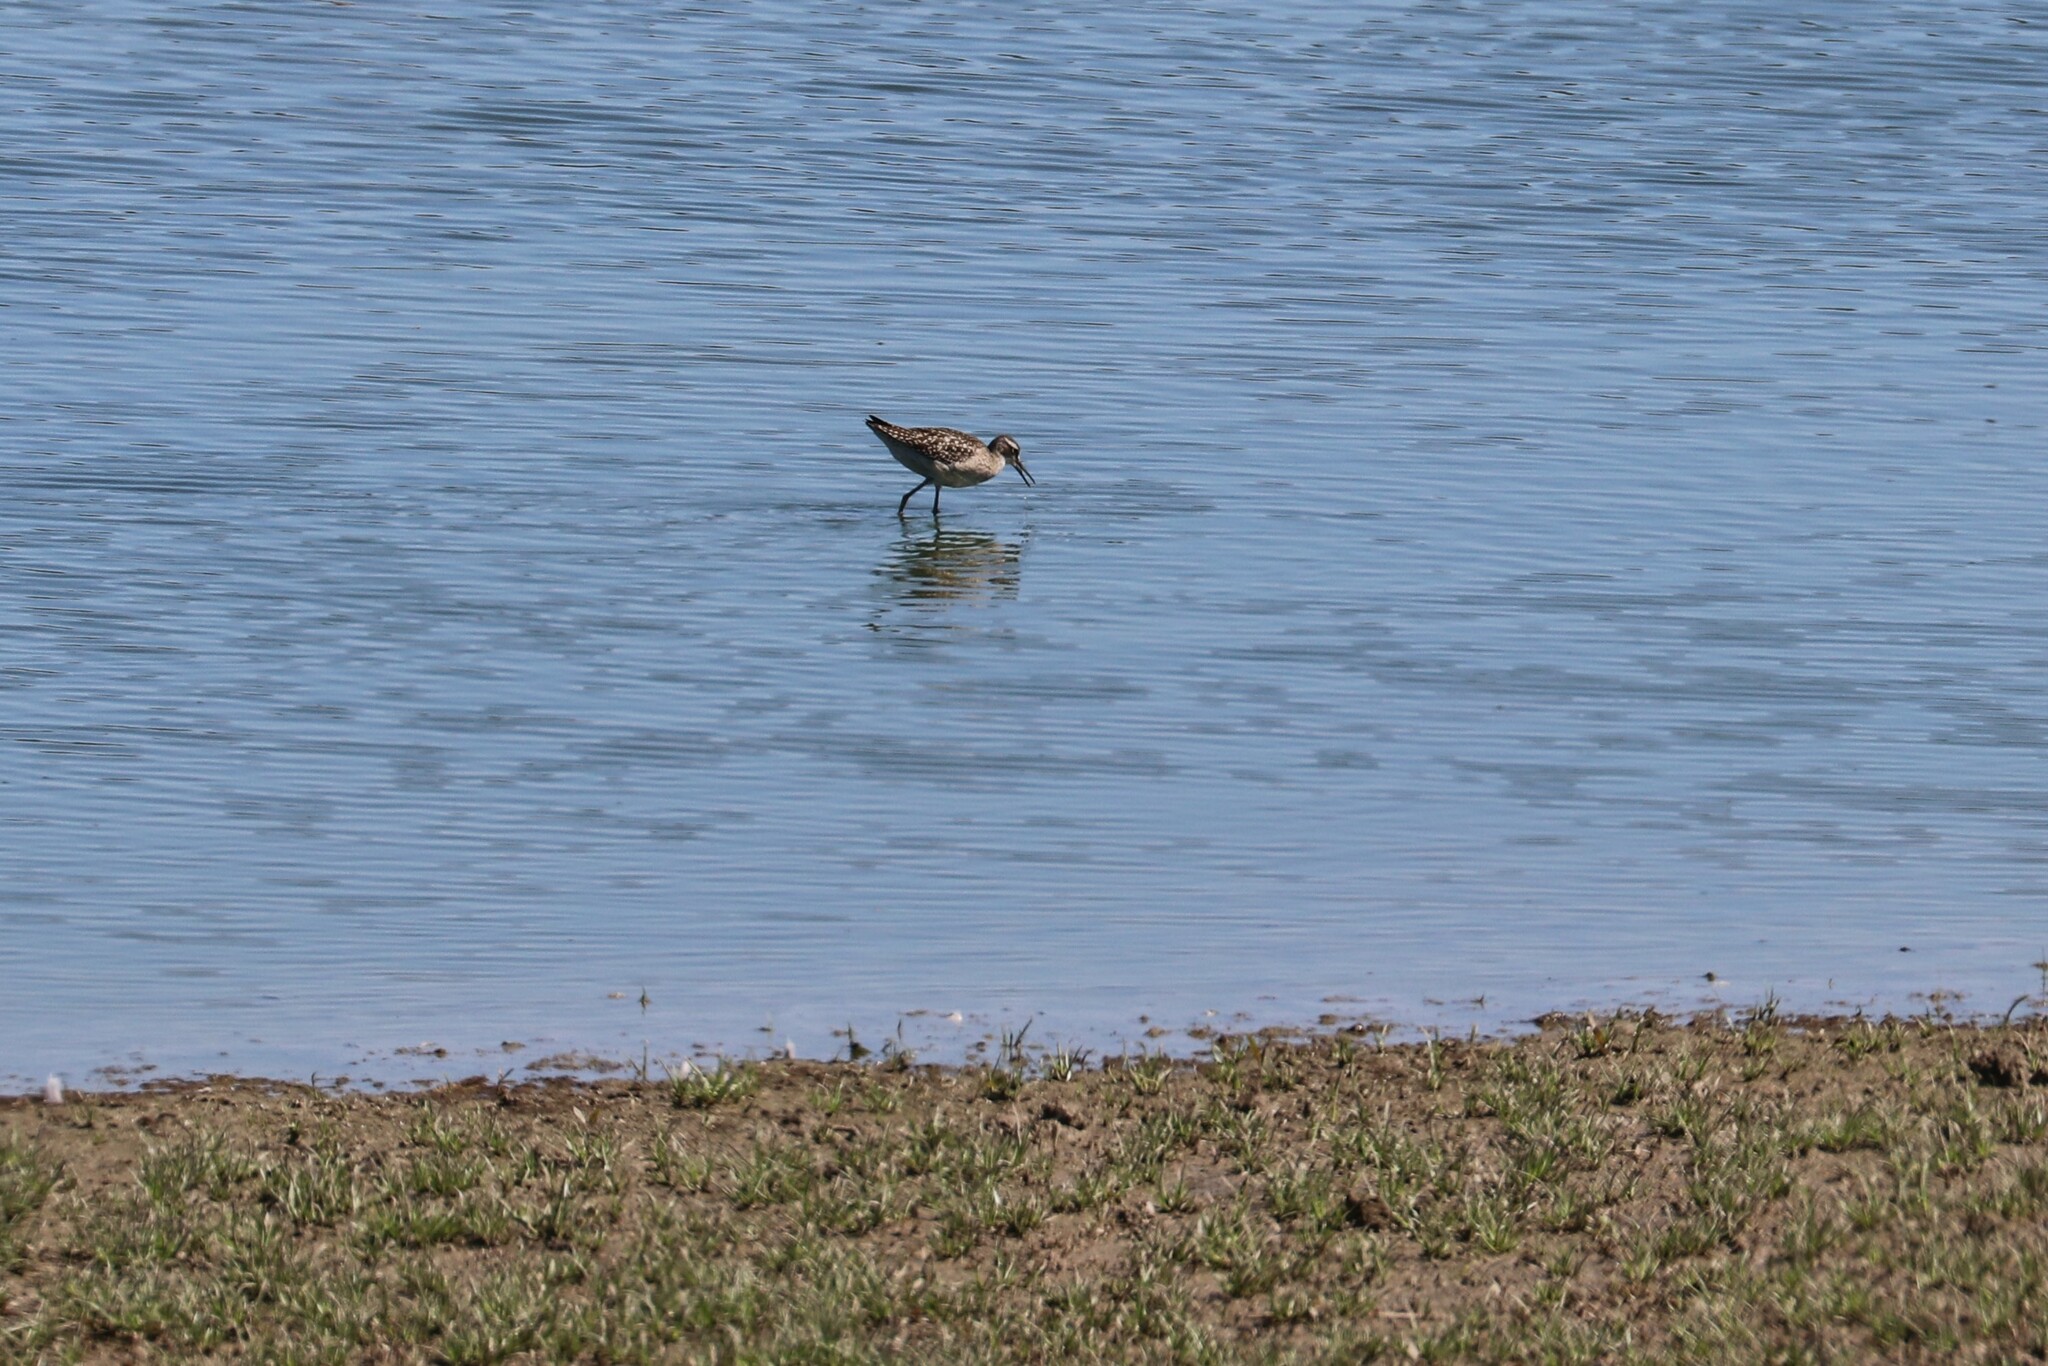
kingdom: Animalia
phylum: Chordata
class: Aves
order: Charadriiformes
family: Scolopacidae
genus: Tringa
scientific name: Tringa glareola
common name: Wood sandpiper
